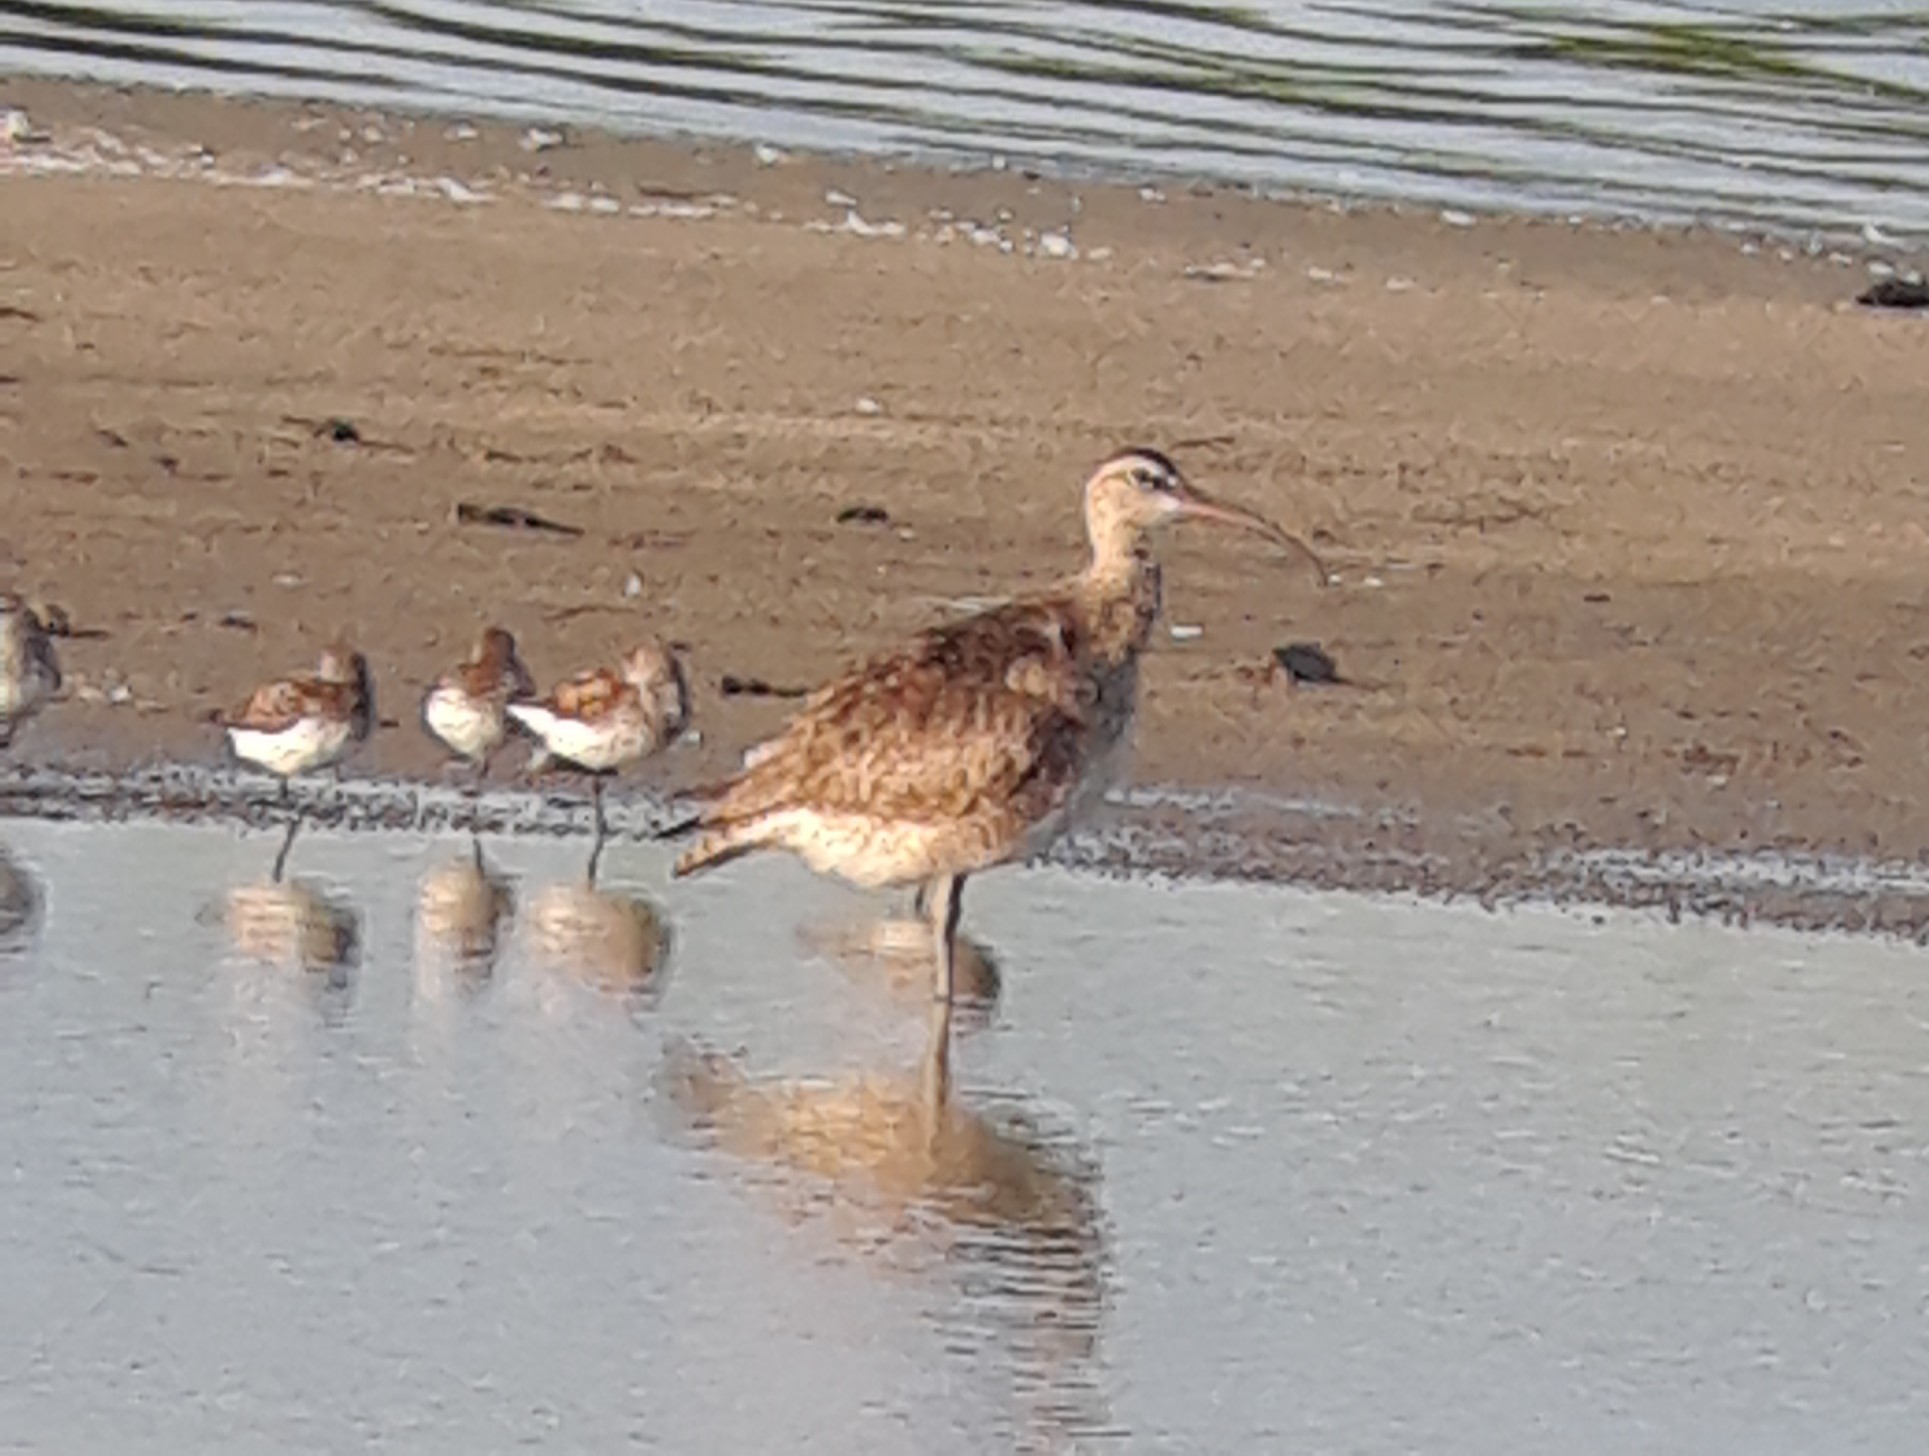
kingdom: Animalia
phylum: Chordata
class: Aves
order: Charadriiformes
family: Scolopacidae
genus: Numenius
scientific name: Numenius phaeopus
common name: Whimbrel
